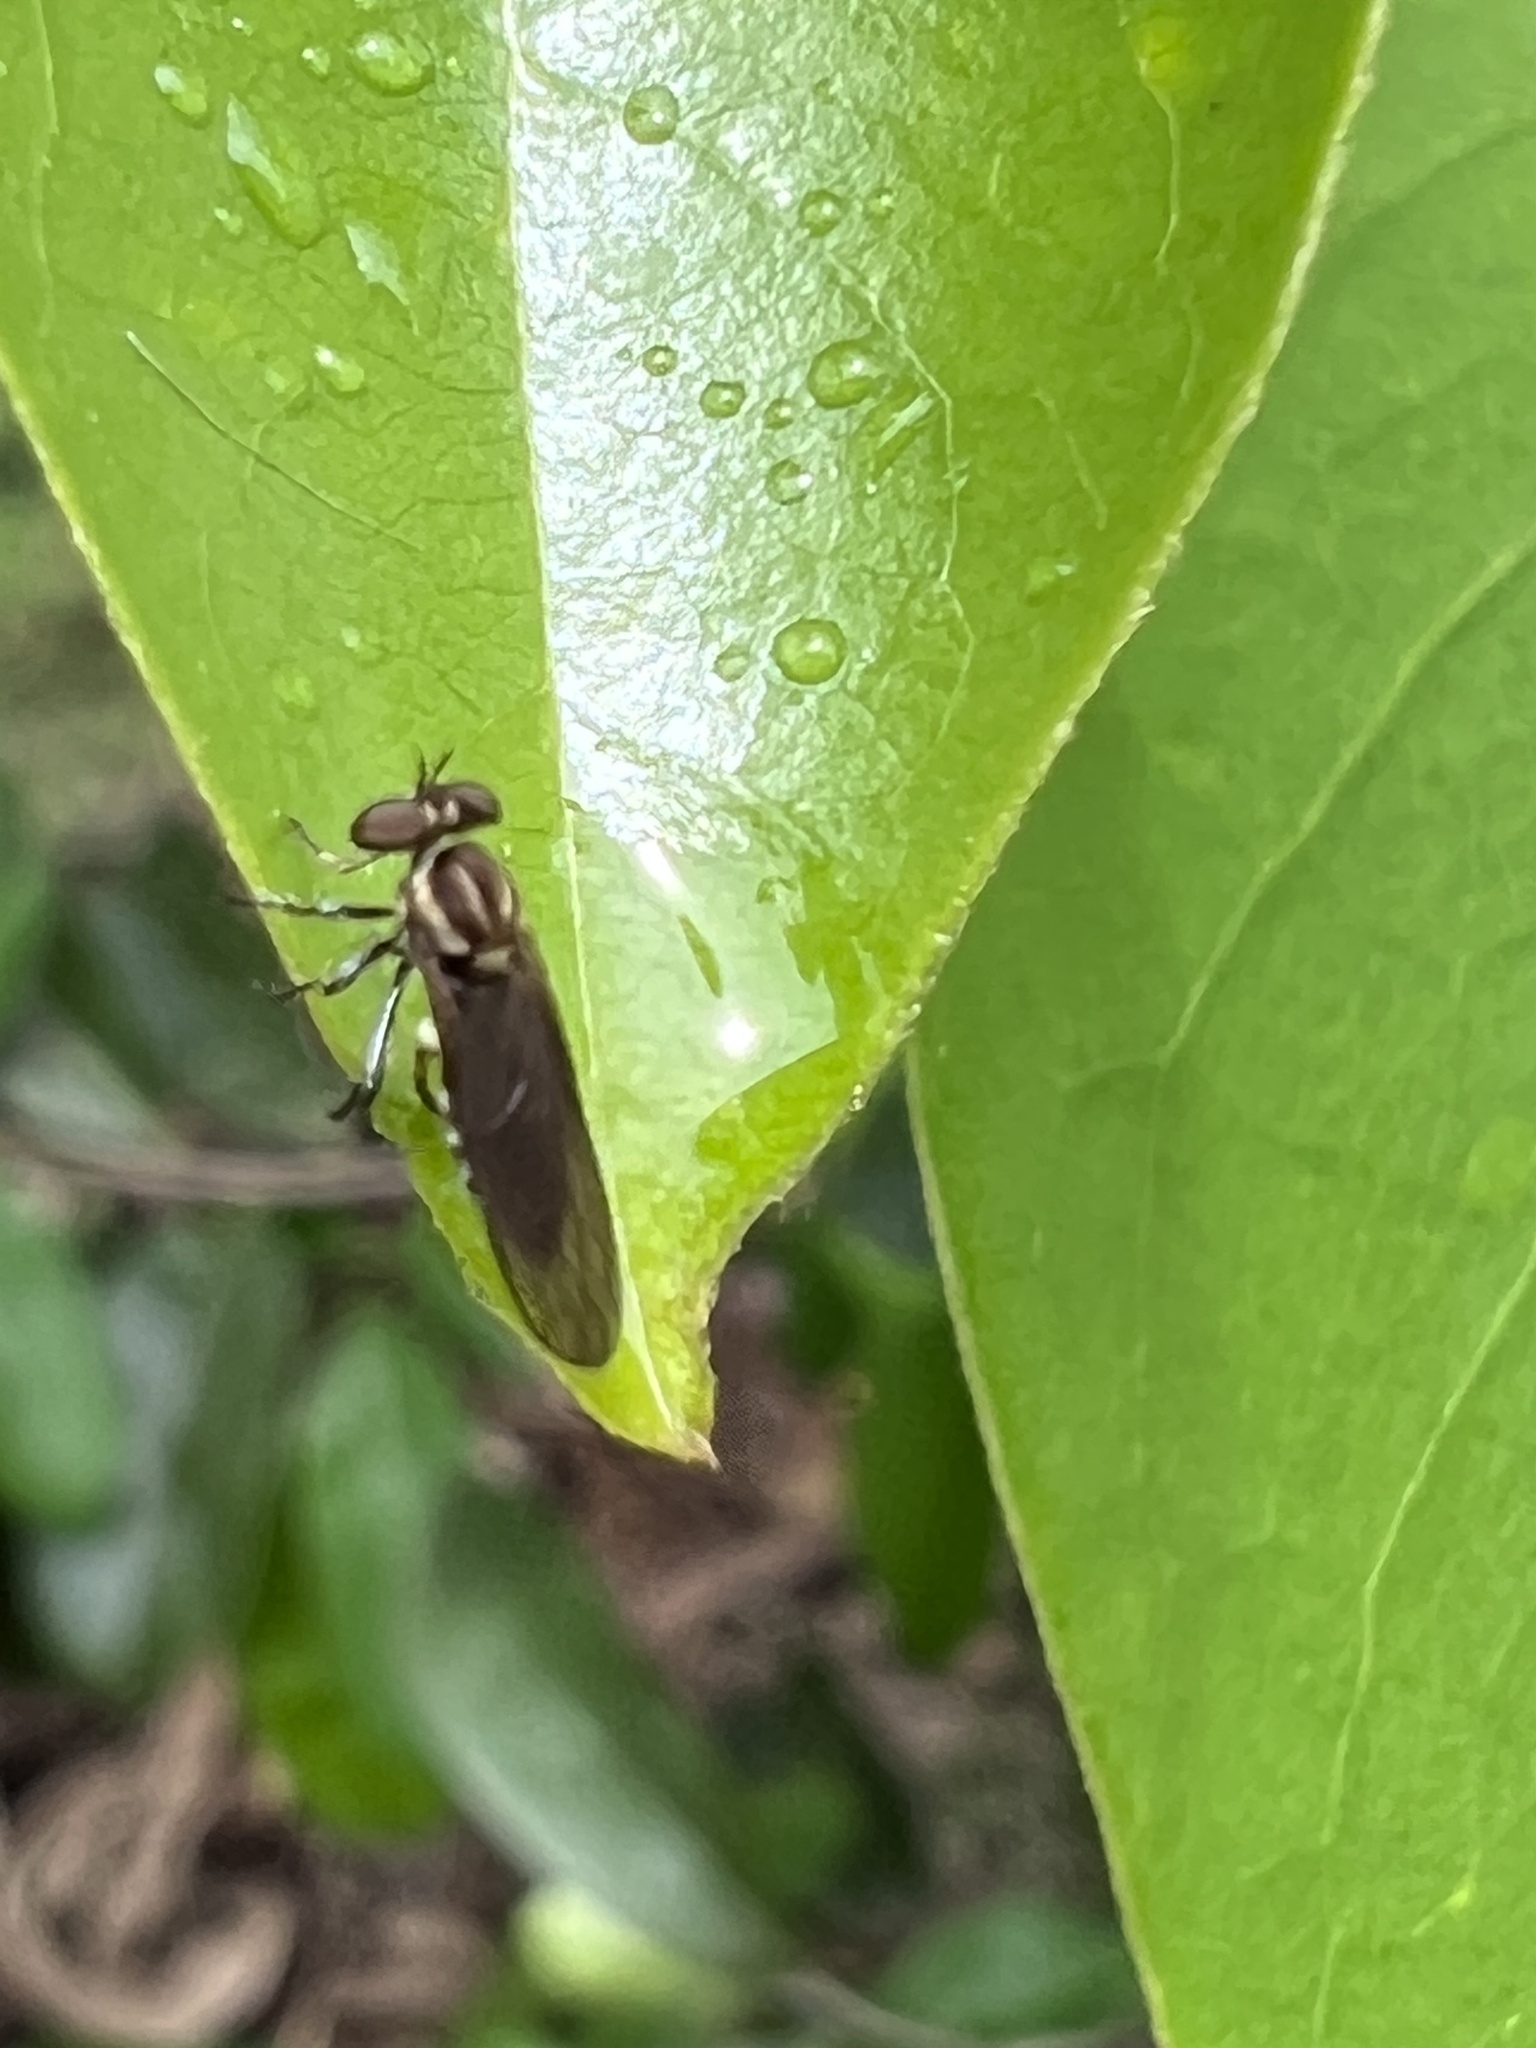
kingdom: Animalia
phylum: Arthropoda
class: Insecta
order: Diptera
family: Asilidae
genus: Holcocephala
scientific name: Holcocephala
